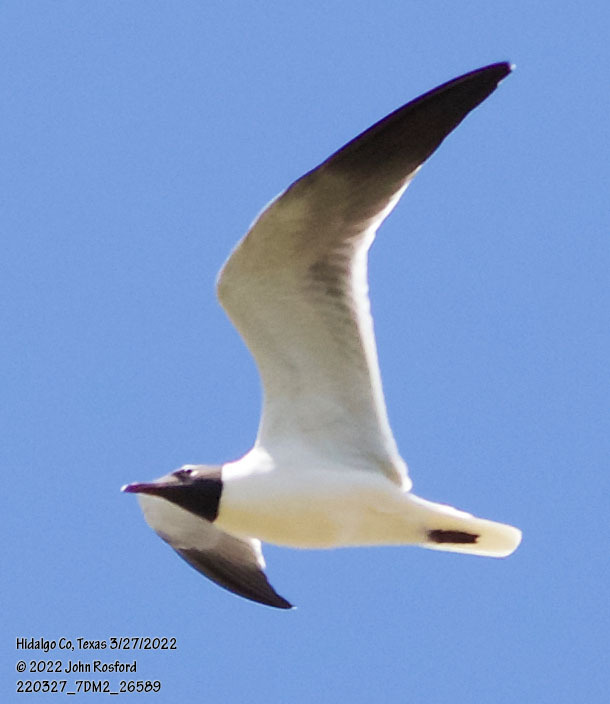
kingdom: Animalia
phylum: Chordata
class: Aves
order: Charadriiformes
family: Laridae
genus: Leucophaeus
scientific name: Leucophaeus atricilla
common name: Laughing gull
